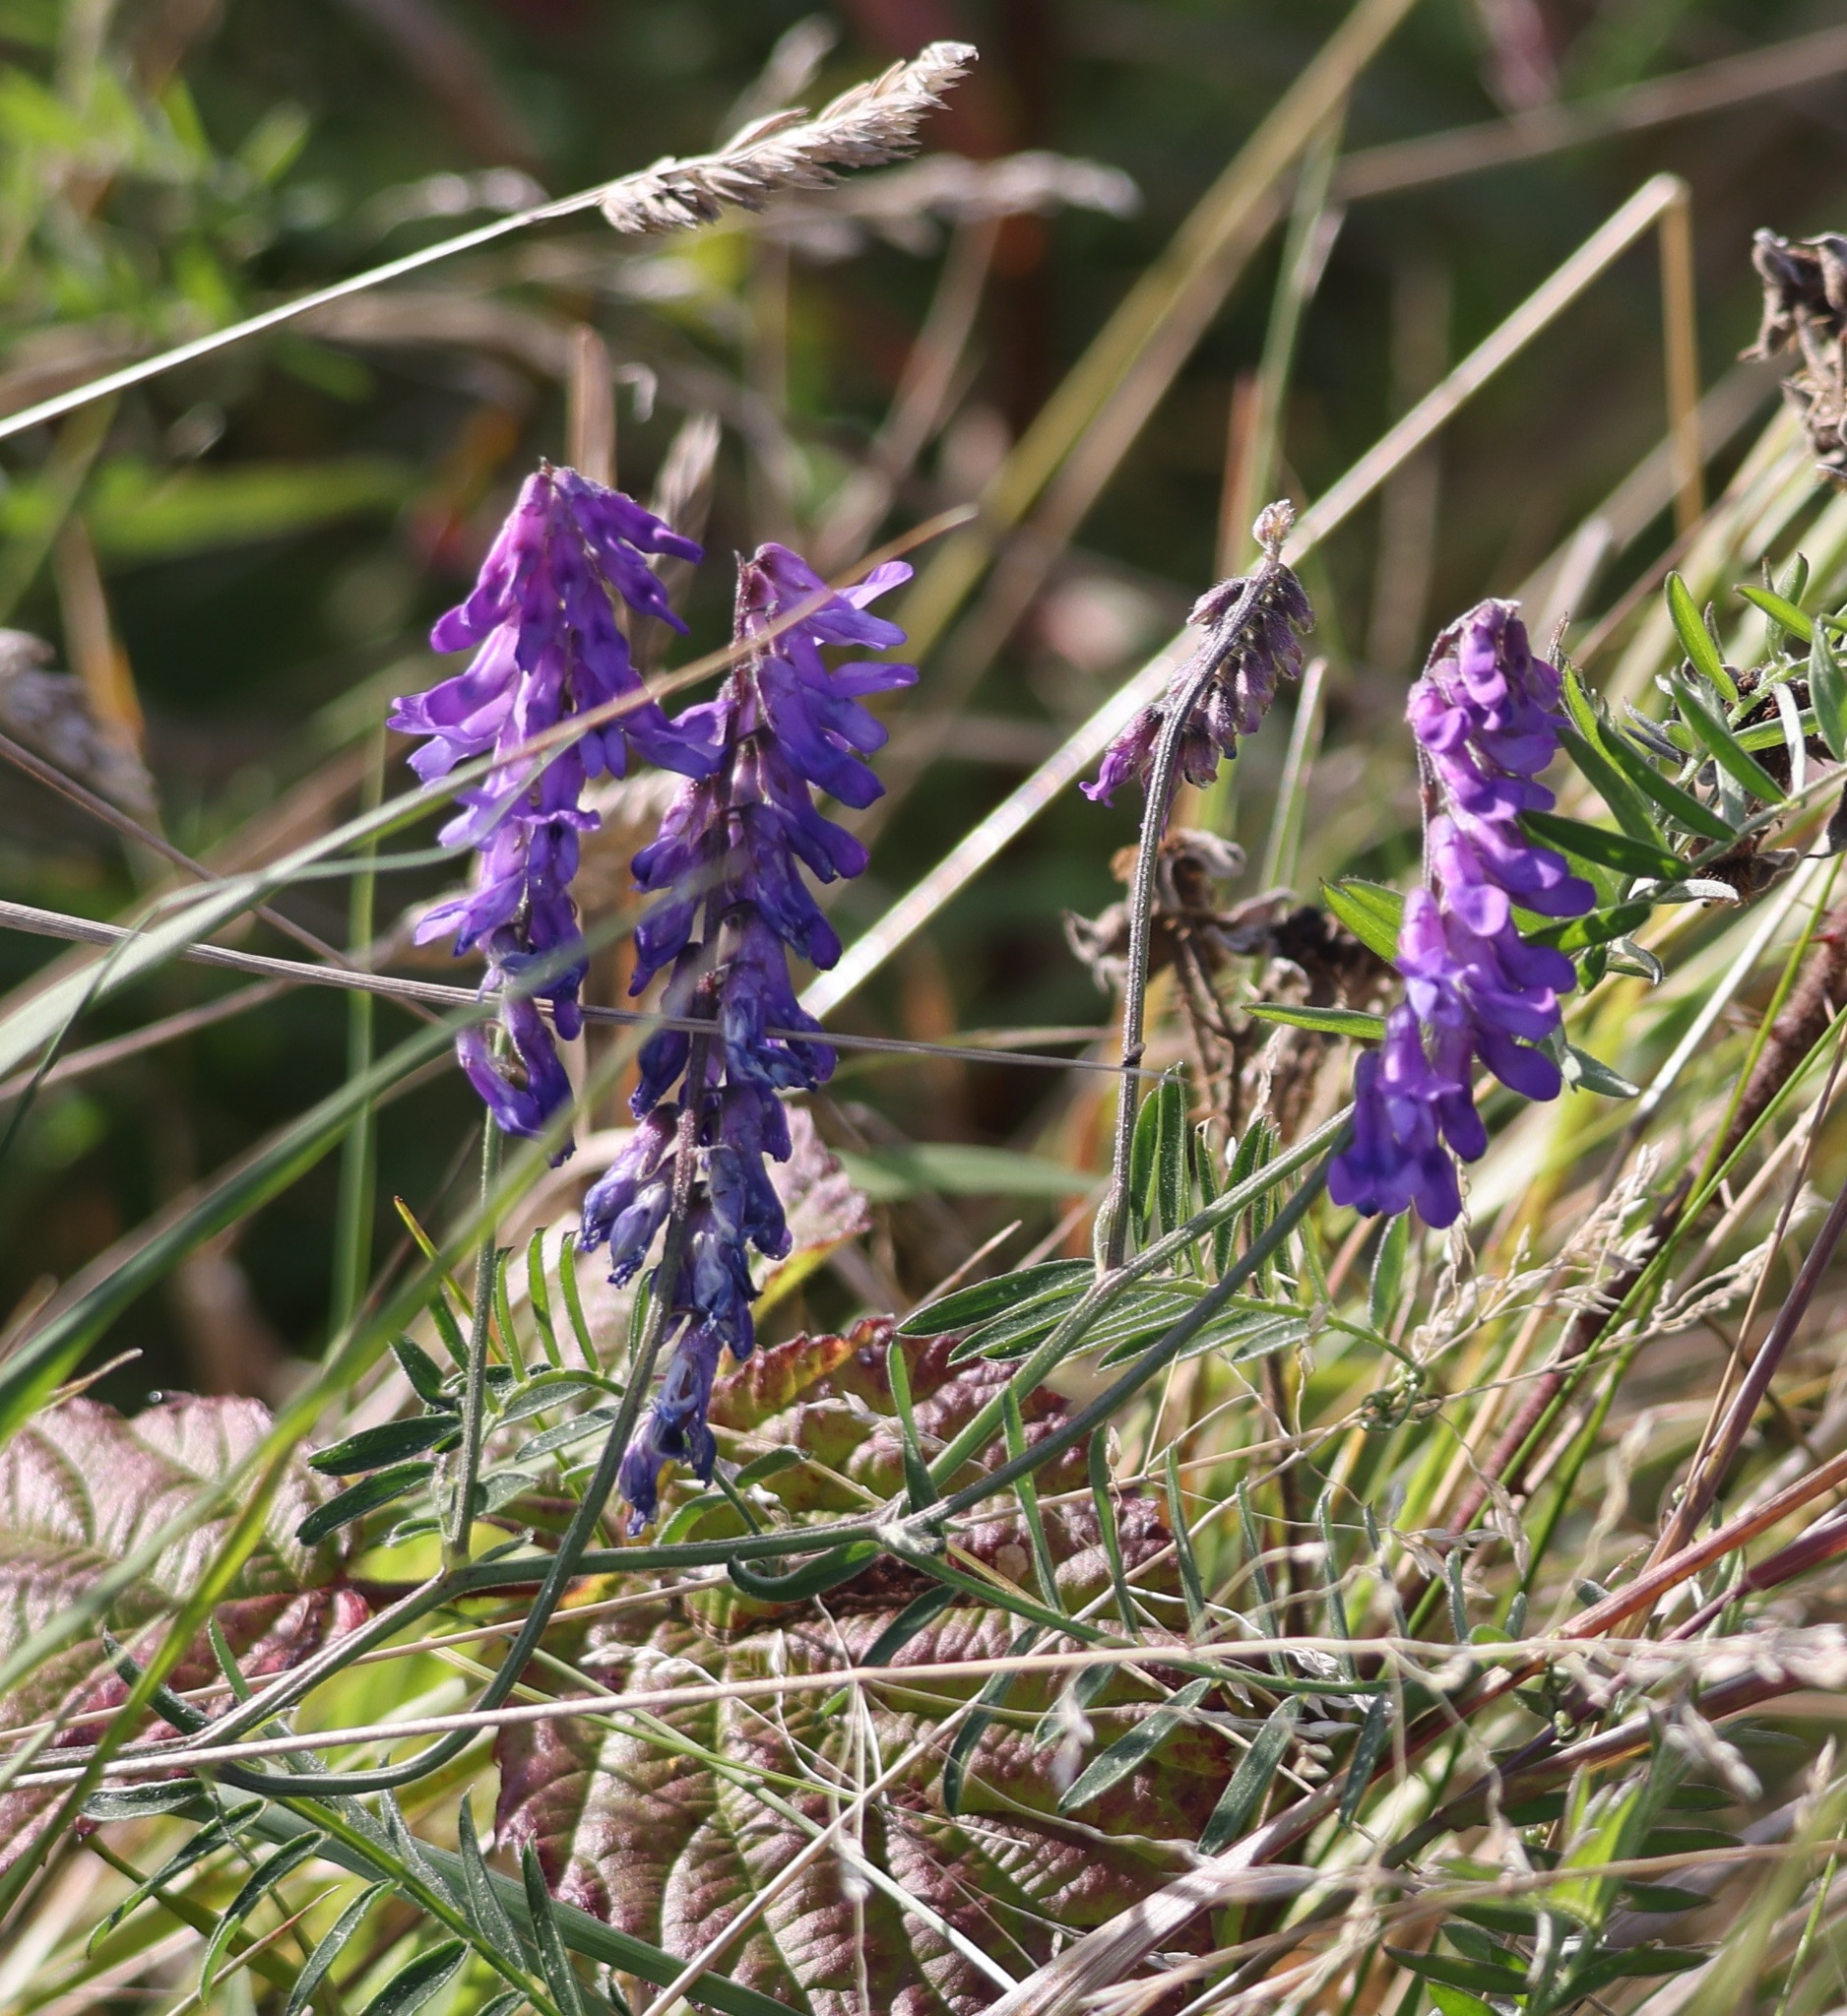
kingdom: Plantae
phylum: Tracheophyta
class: Magnoliopsida
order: Fabales
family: Fabaceae
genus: Vicia
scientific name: Vicia cracca
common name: Bird vetch
